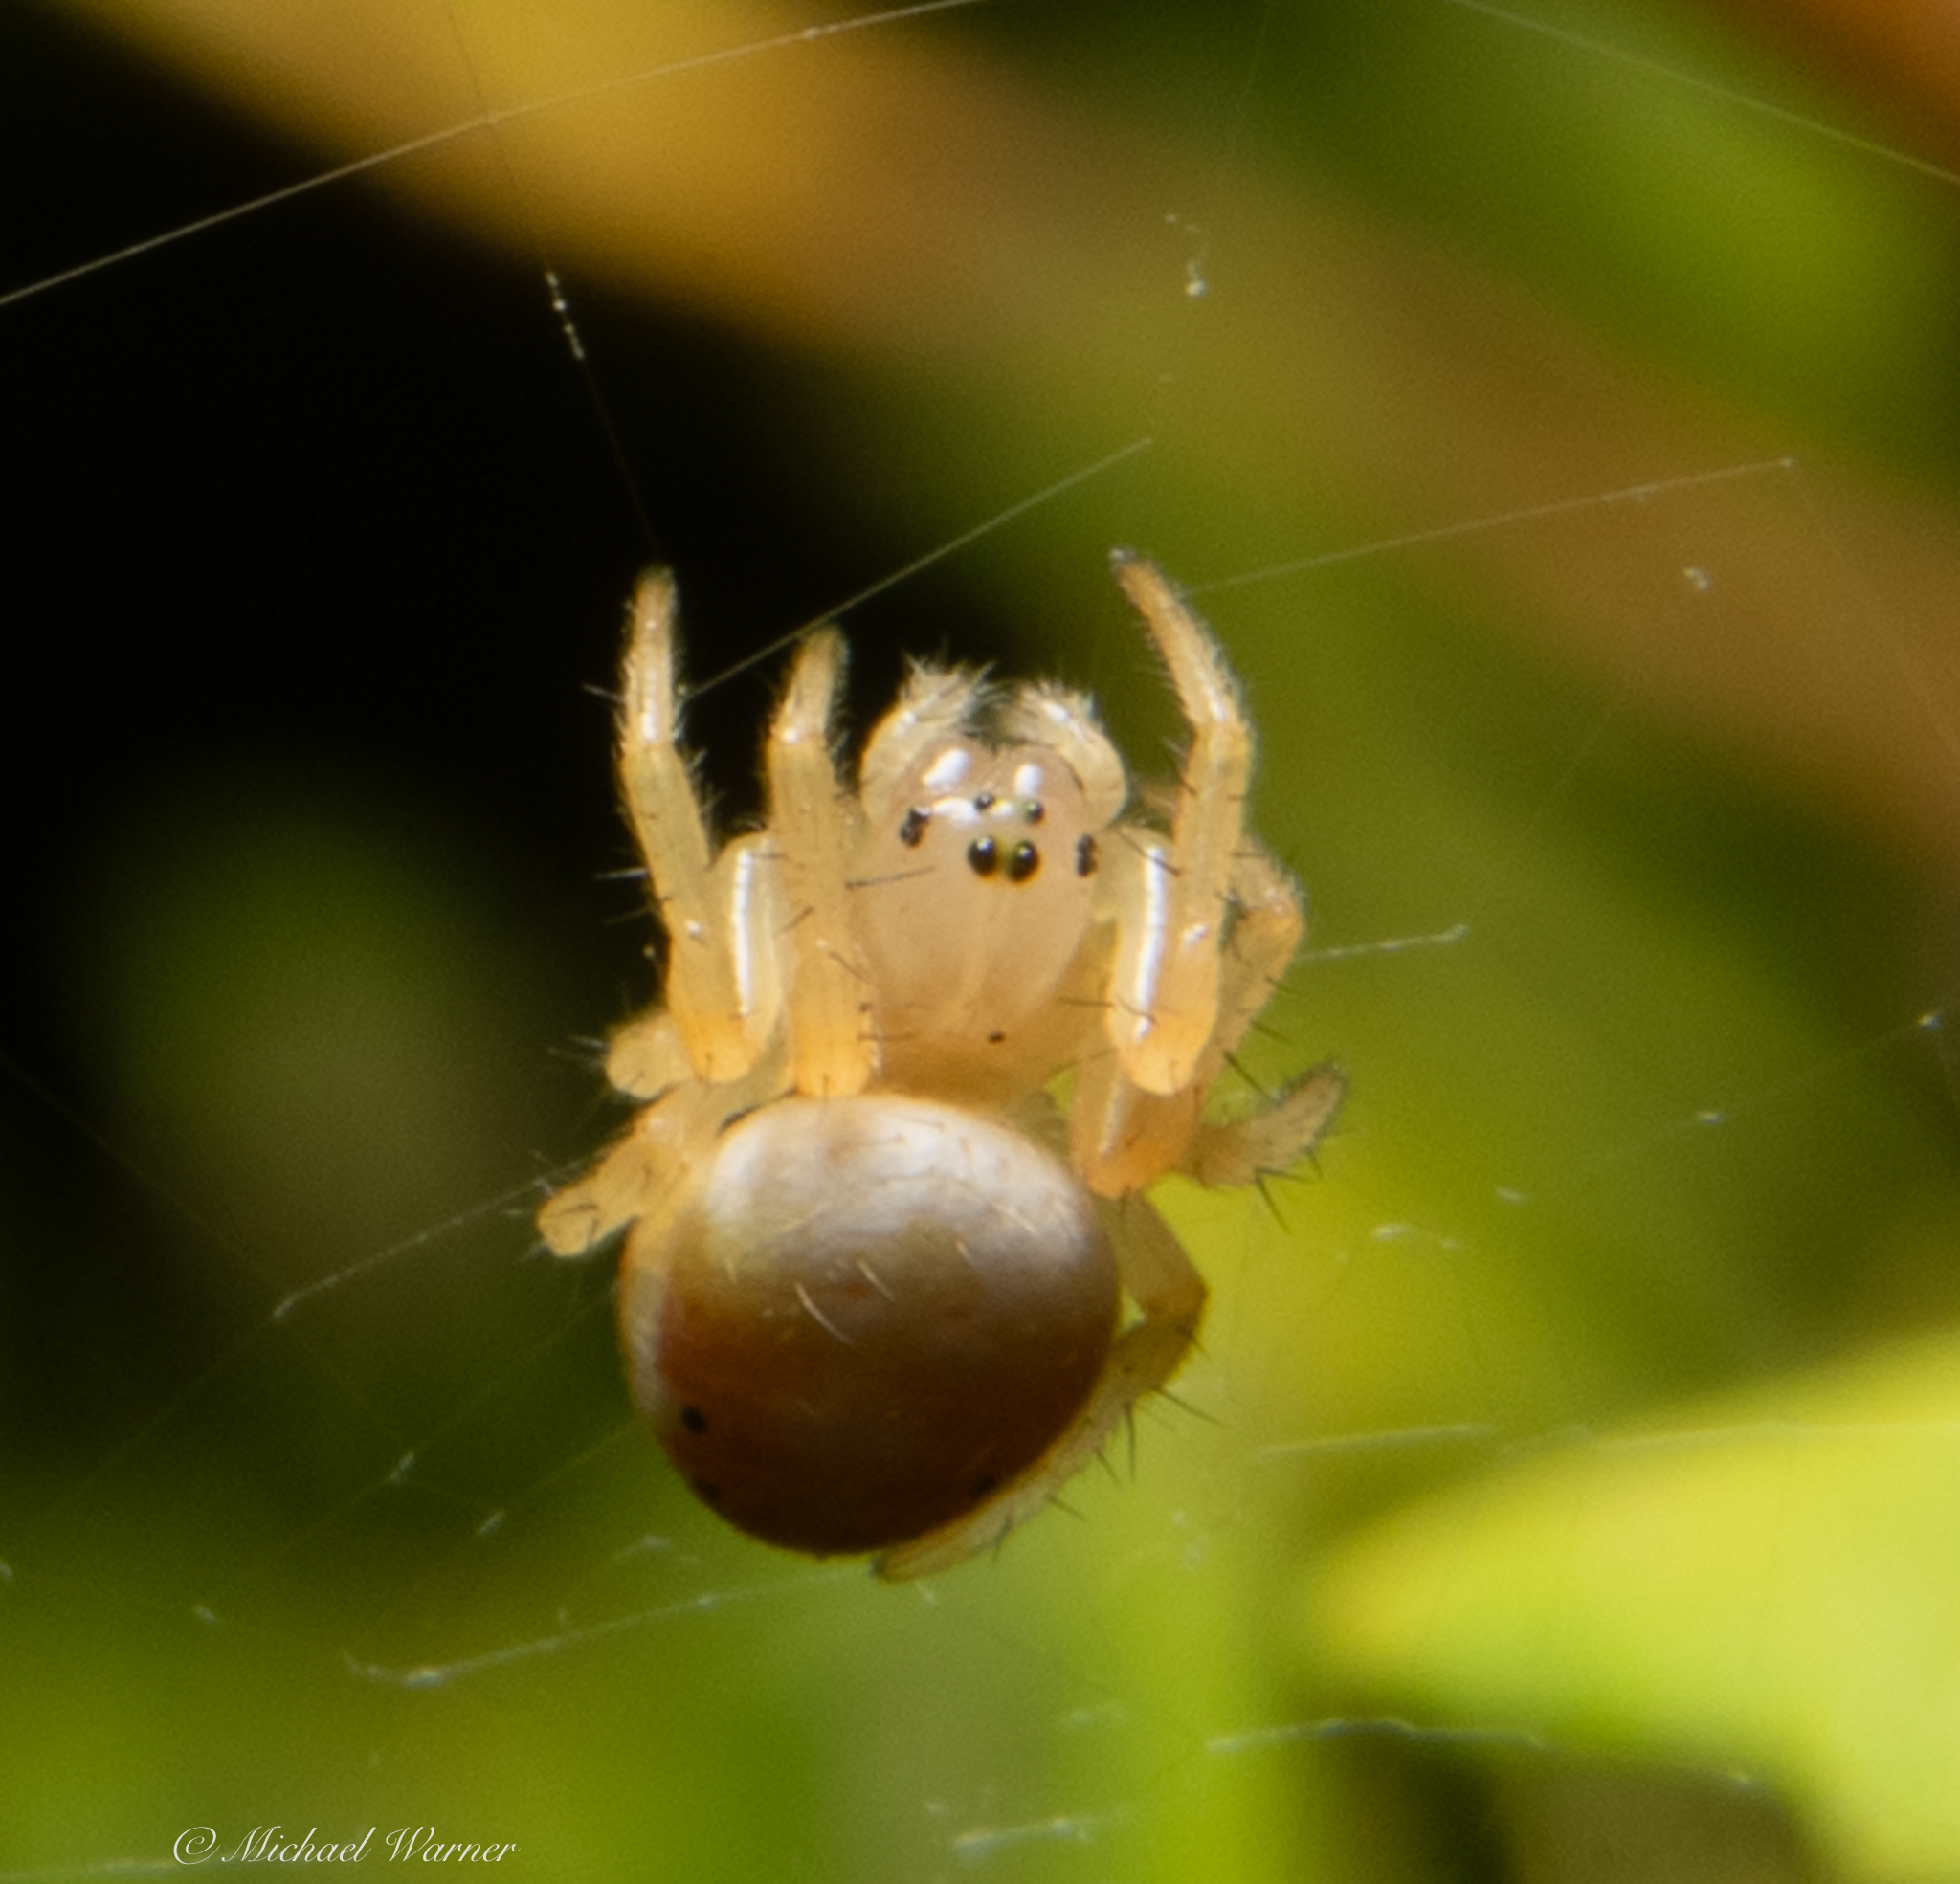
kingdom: Animalia
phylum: Arthropoda
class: Arachnida
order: Araneae
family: Araneidae
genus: Araniella
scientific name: Araniella displicata
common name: Sixspotted orb weaver
